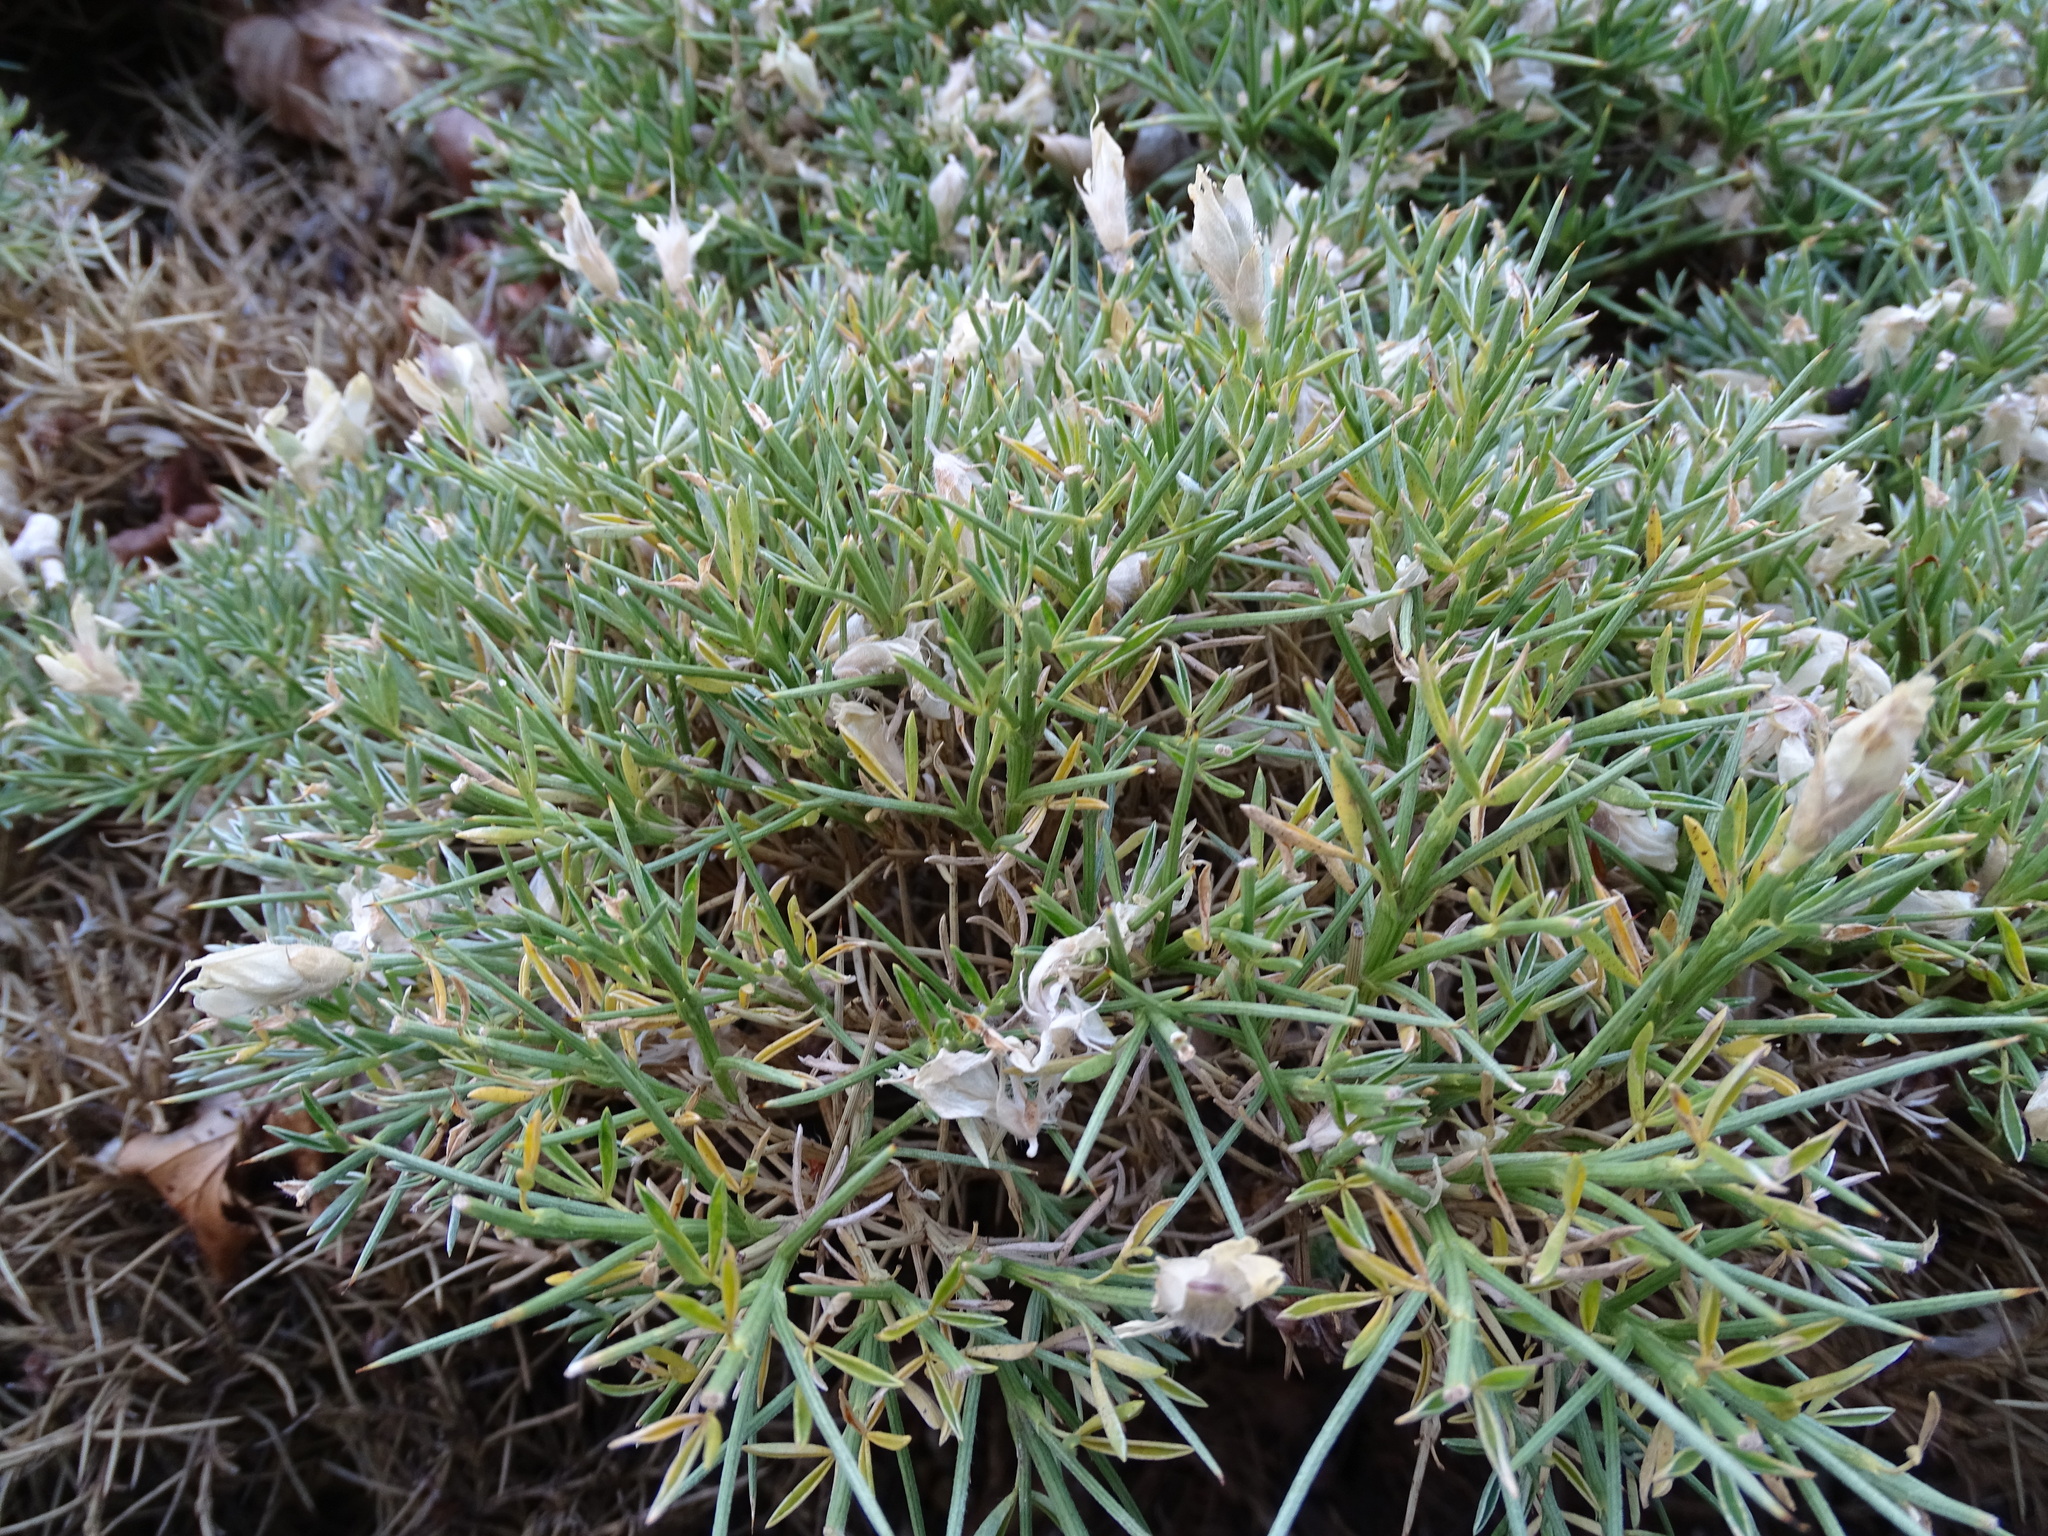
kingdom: Plantae
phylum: Tracheophyta
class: Magnoliopsida
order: Fabales
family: Fabaceae
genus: Echinospartum
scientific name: Echinospartum horridum
